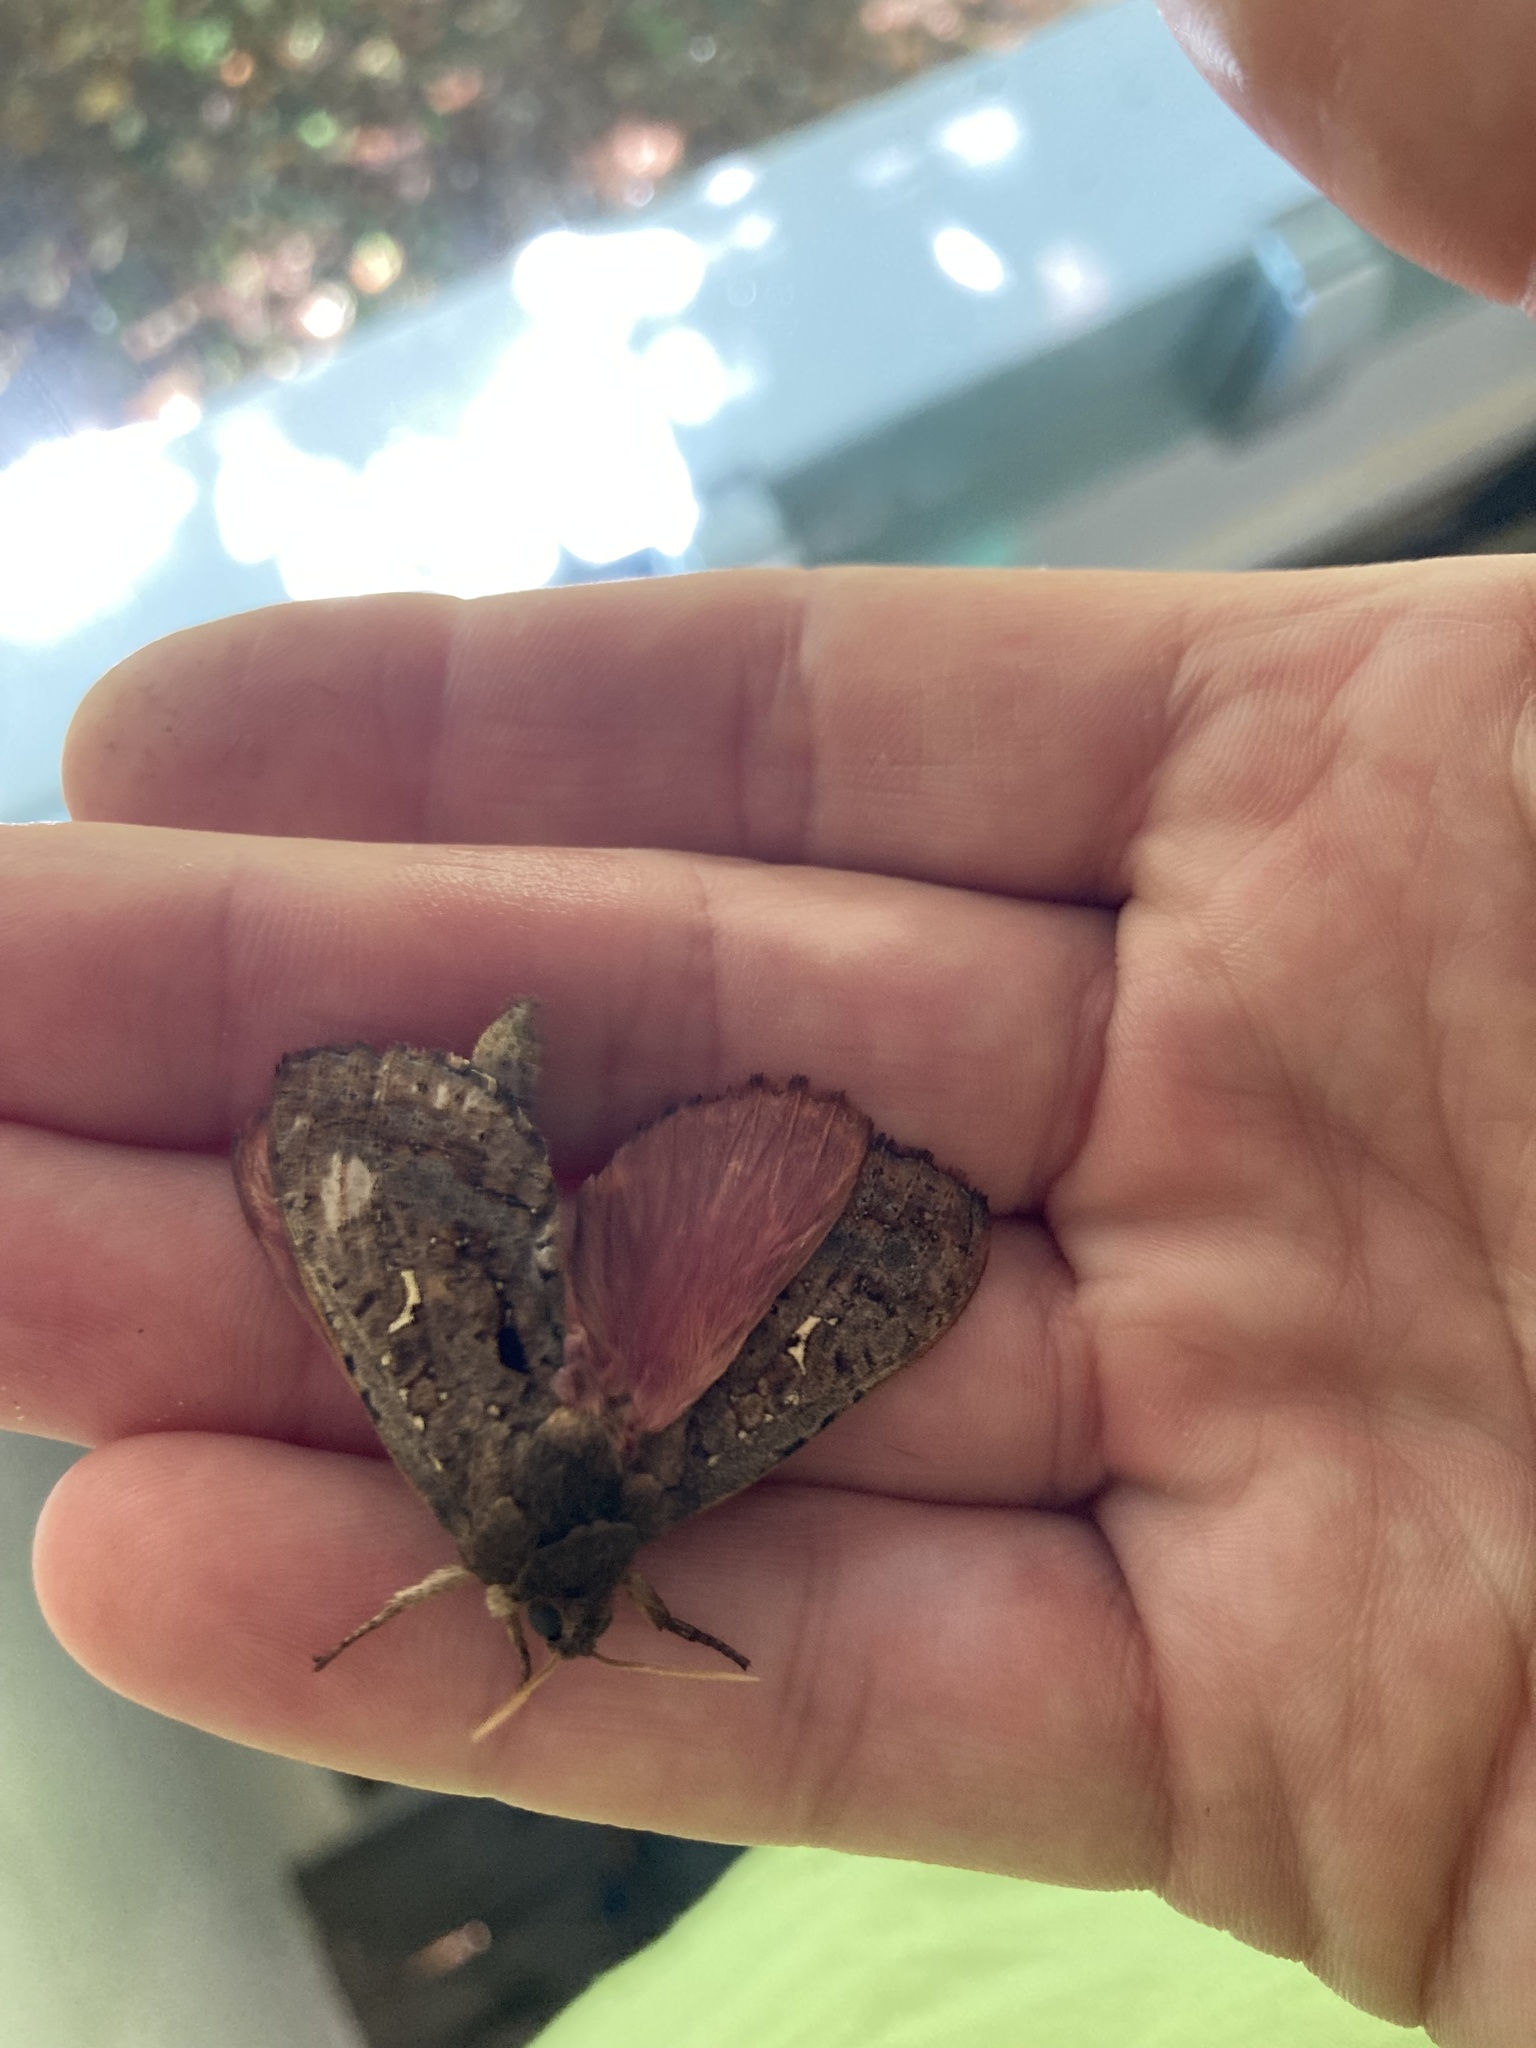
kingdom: Animalia
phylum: Arthropoda
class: Insecta
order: Lepidoptera
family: Hepialidae
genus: Dumbletonius
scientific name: Dumbletonius unimaculata
